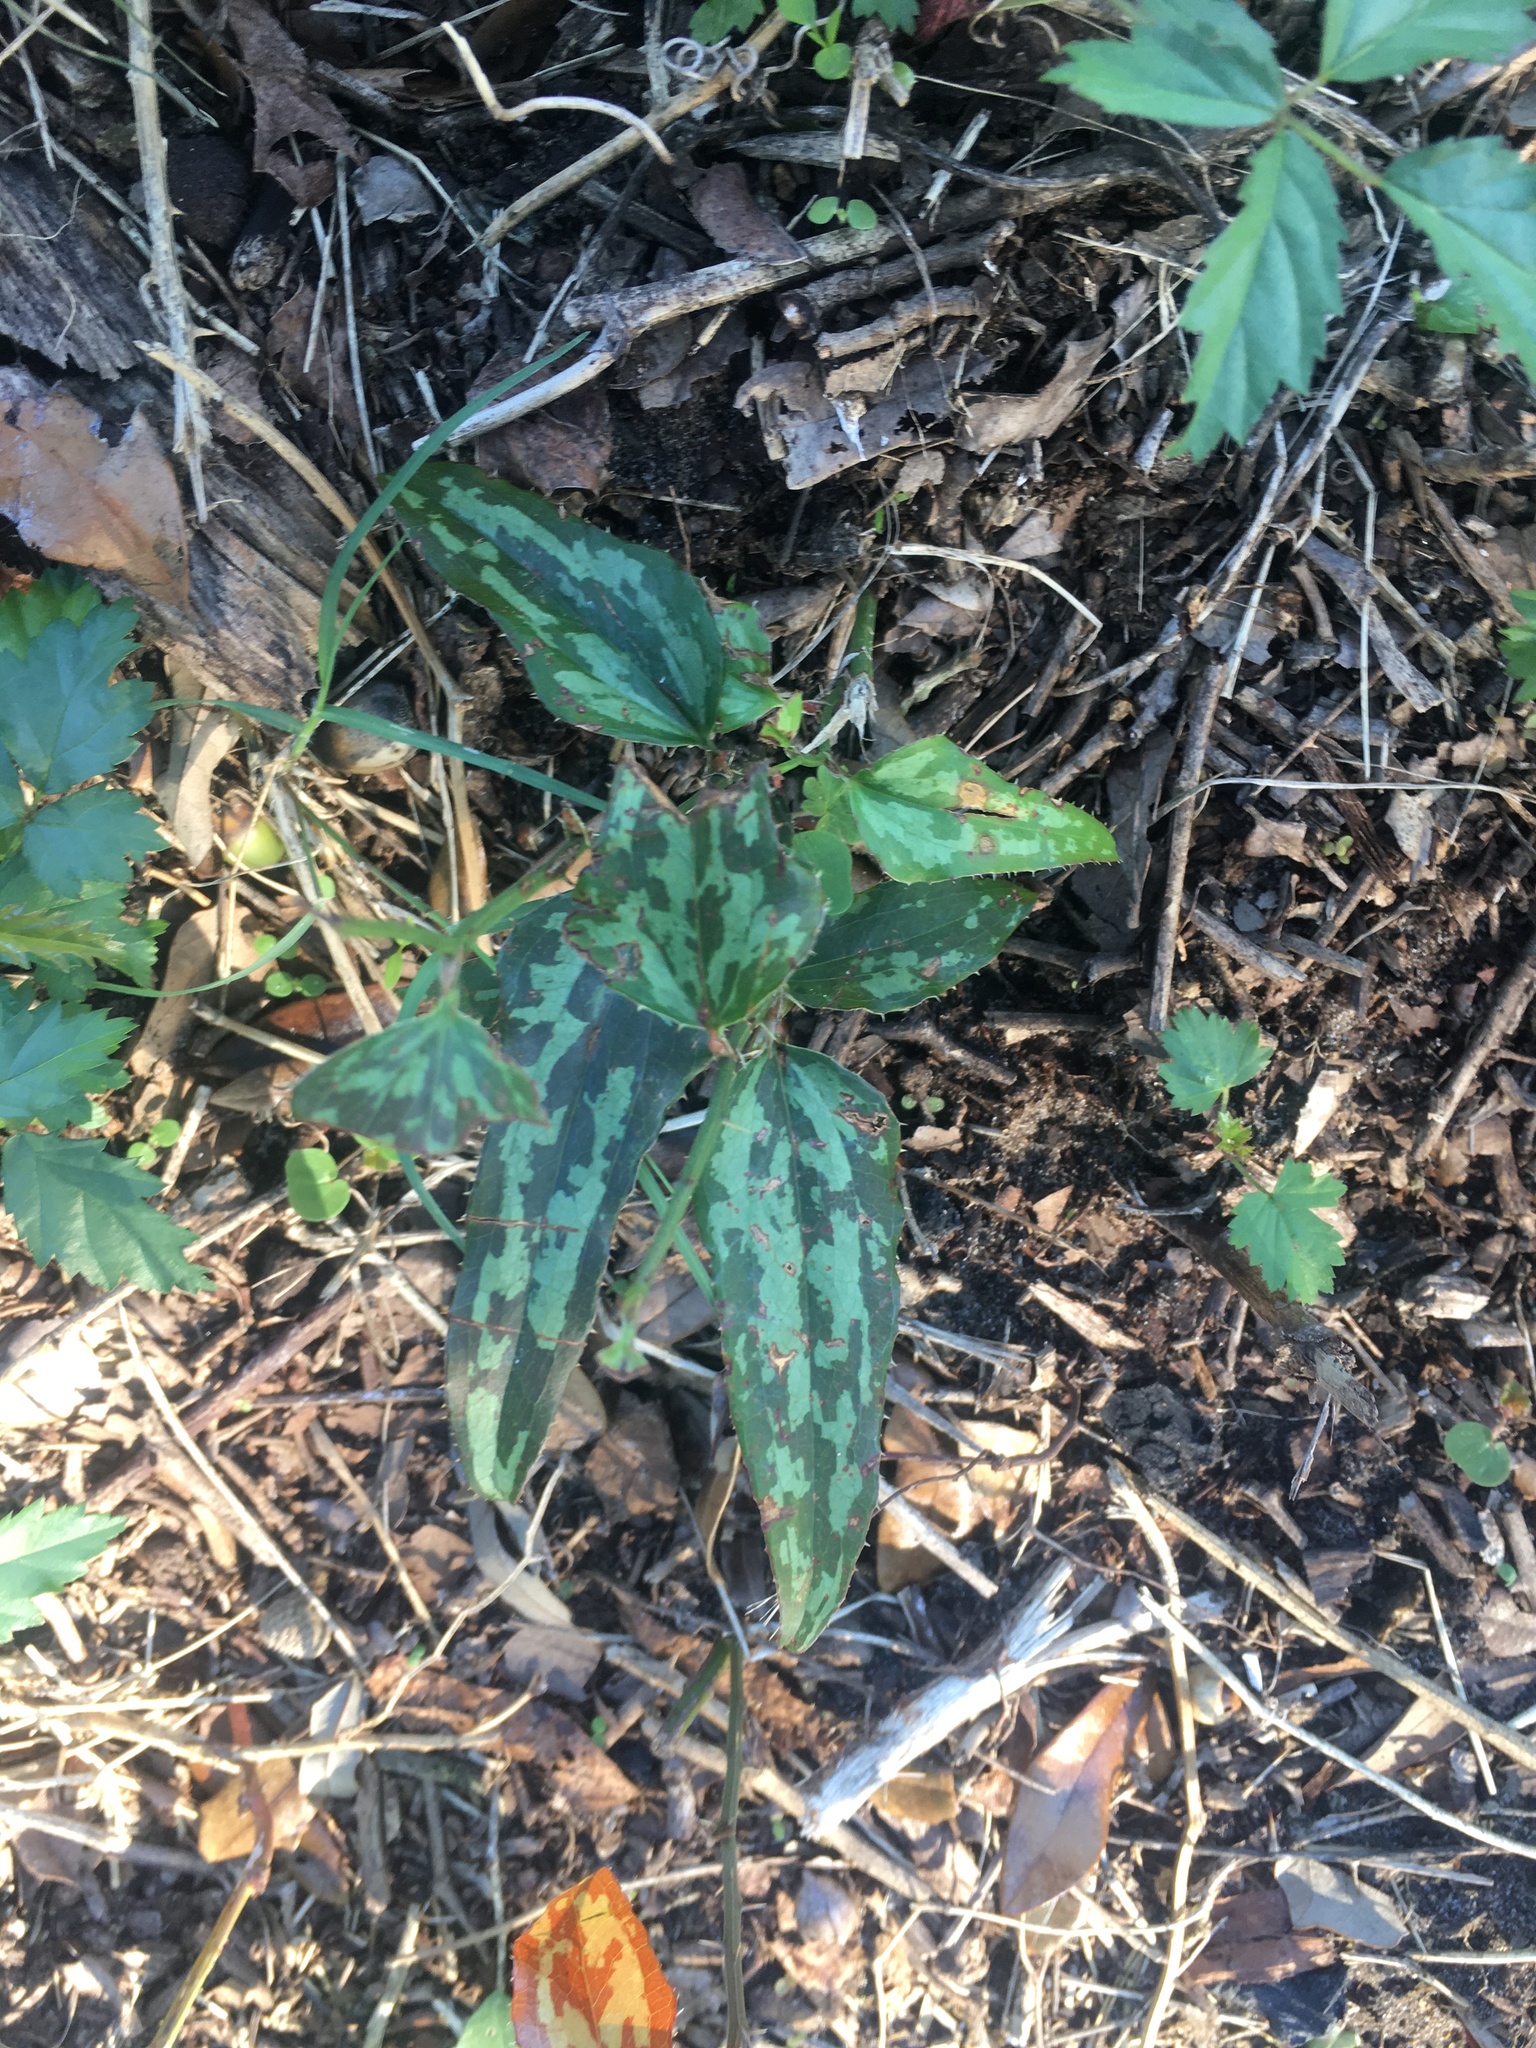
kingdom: Plantae
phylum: Tracheophyta
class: Liliopsida
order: Liliales
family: Smilacaceae
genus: Smilax
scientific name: Smilax bona-nox
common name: Catbrier
